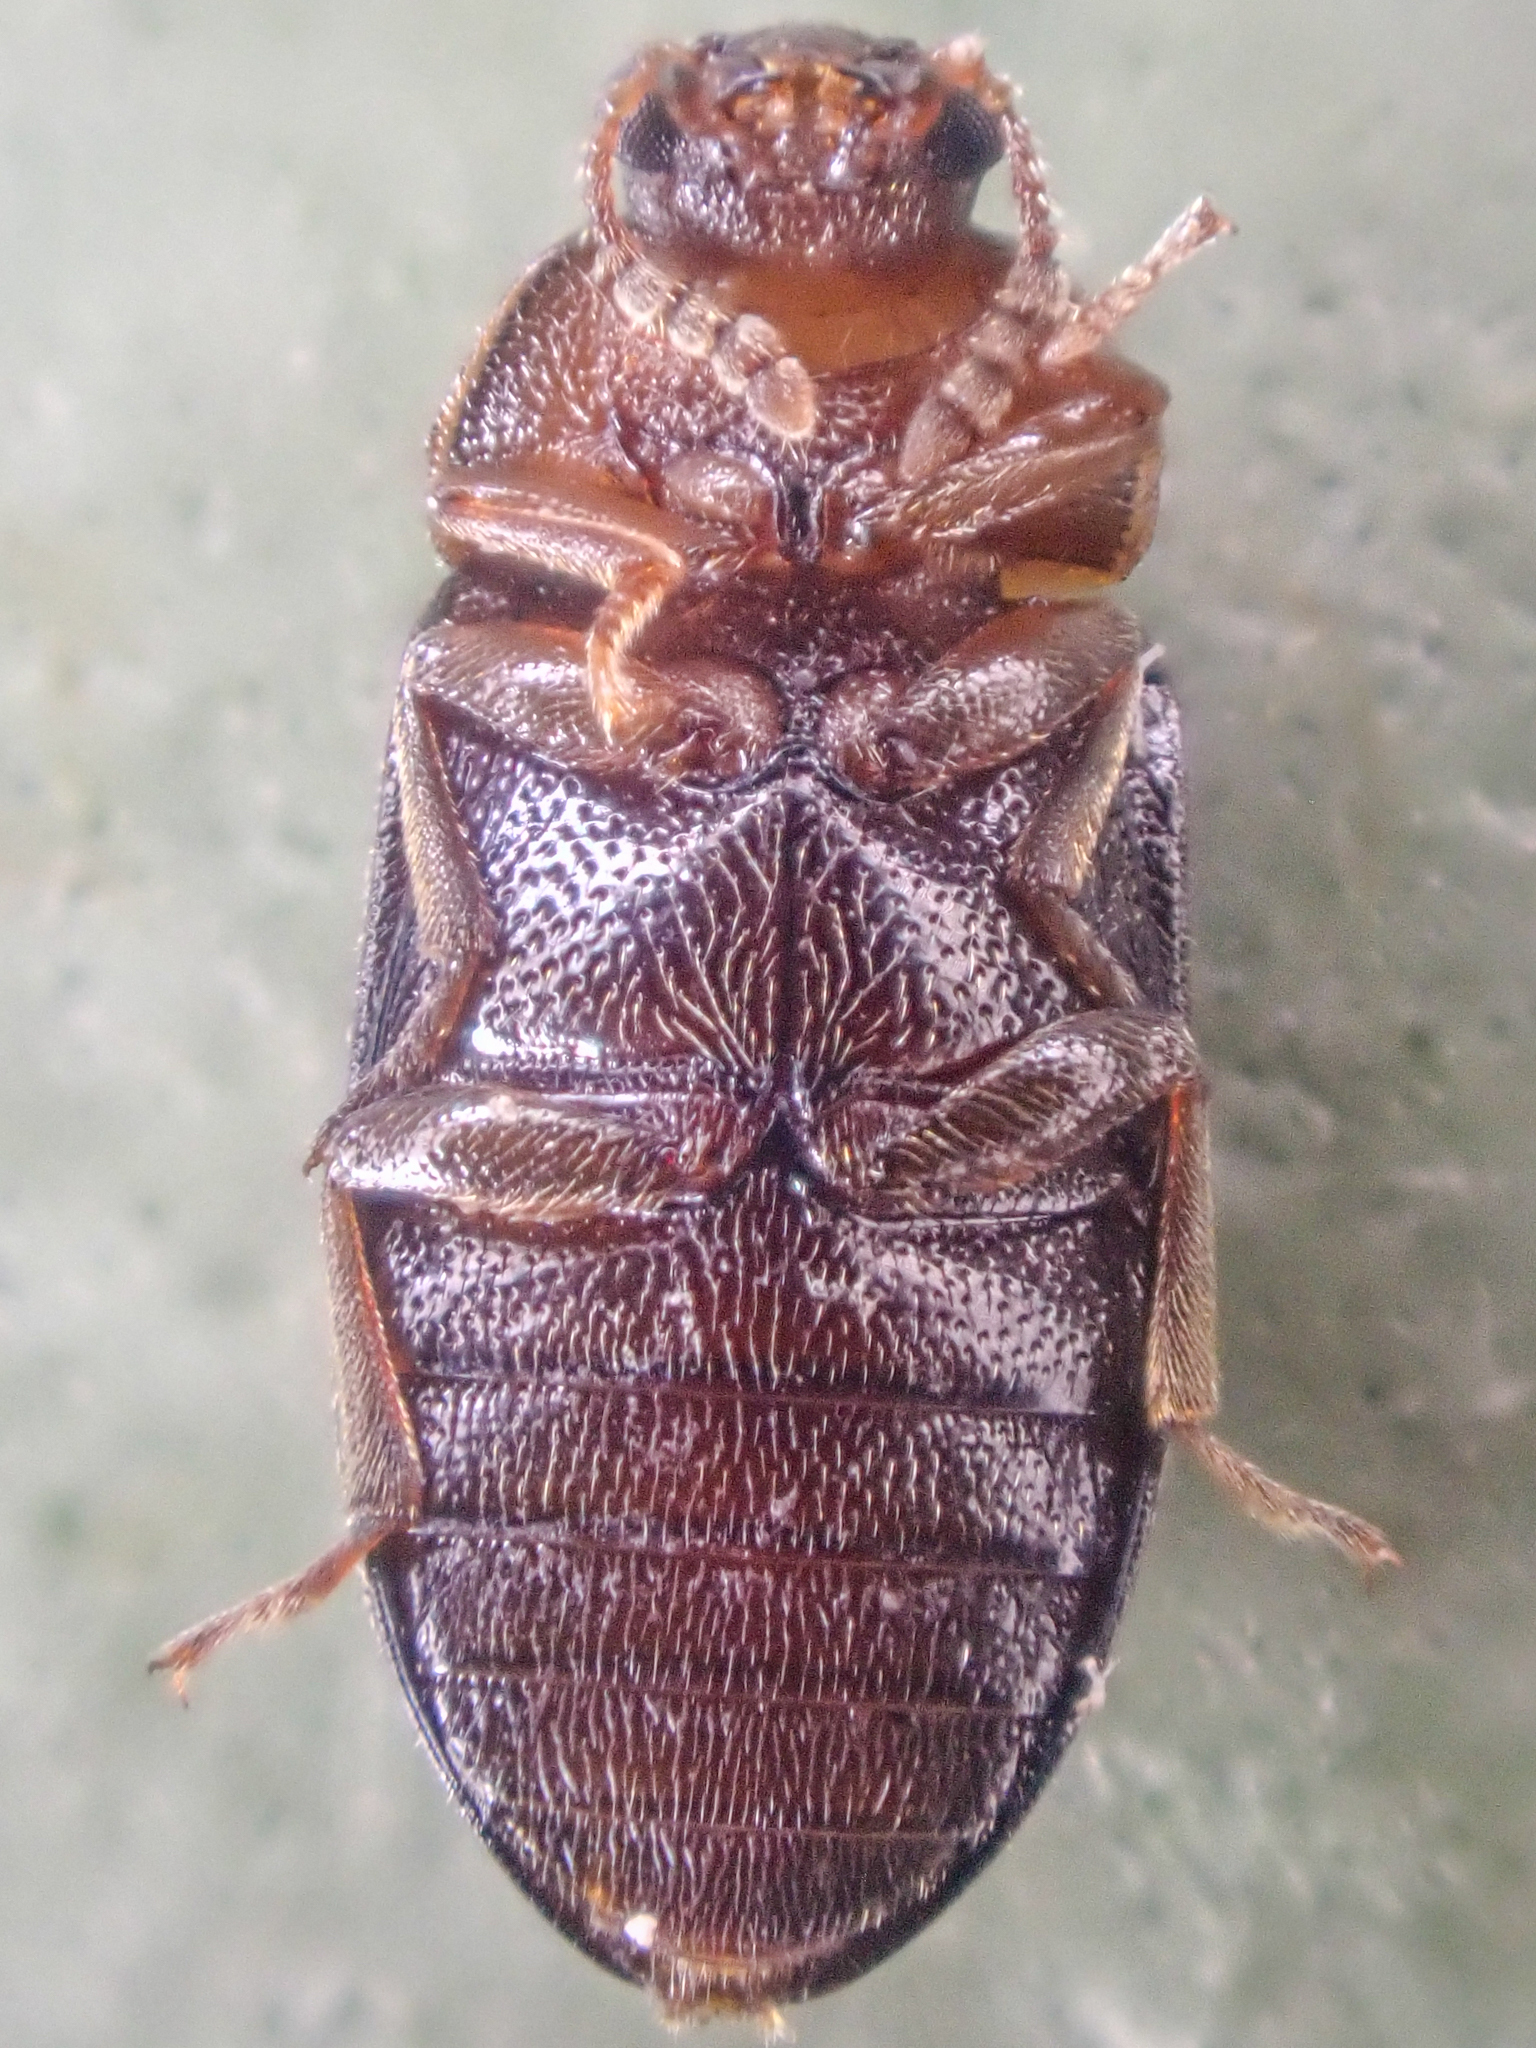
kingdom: Animalia
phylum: Arthropoda
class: Insecta
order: Coleoptera
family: Tetratomidae
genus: Tetratoma
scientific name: Tetratoma concolor
